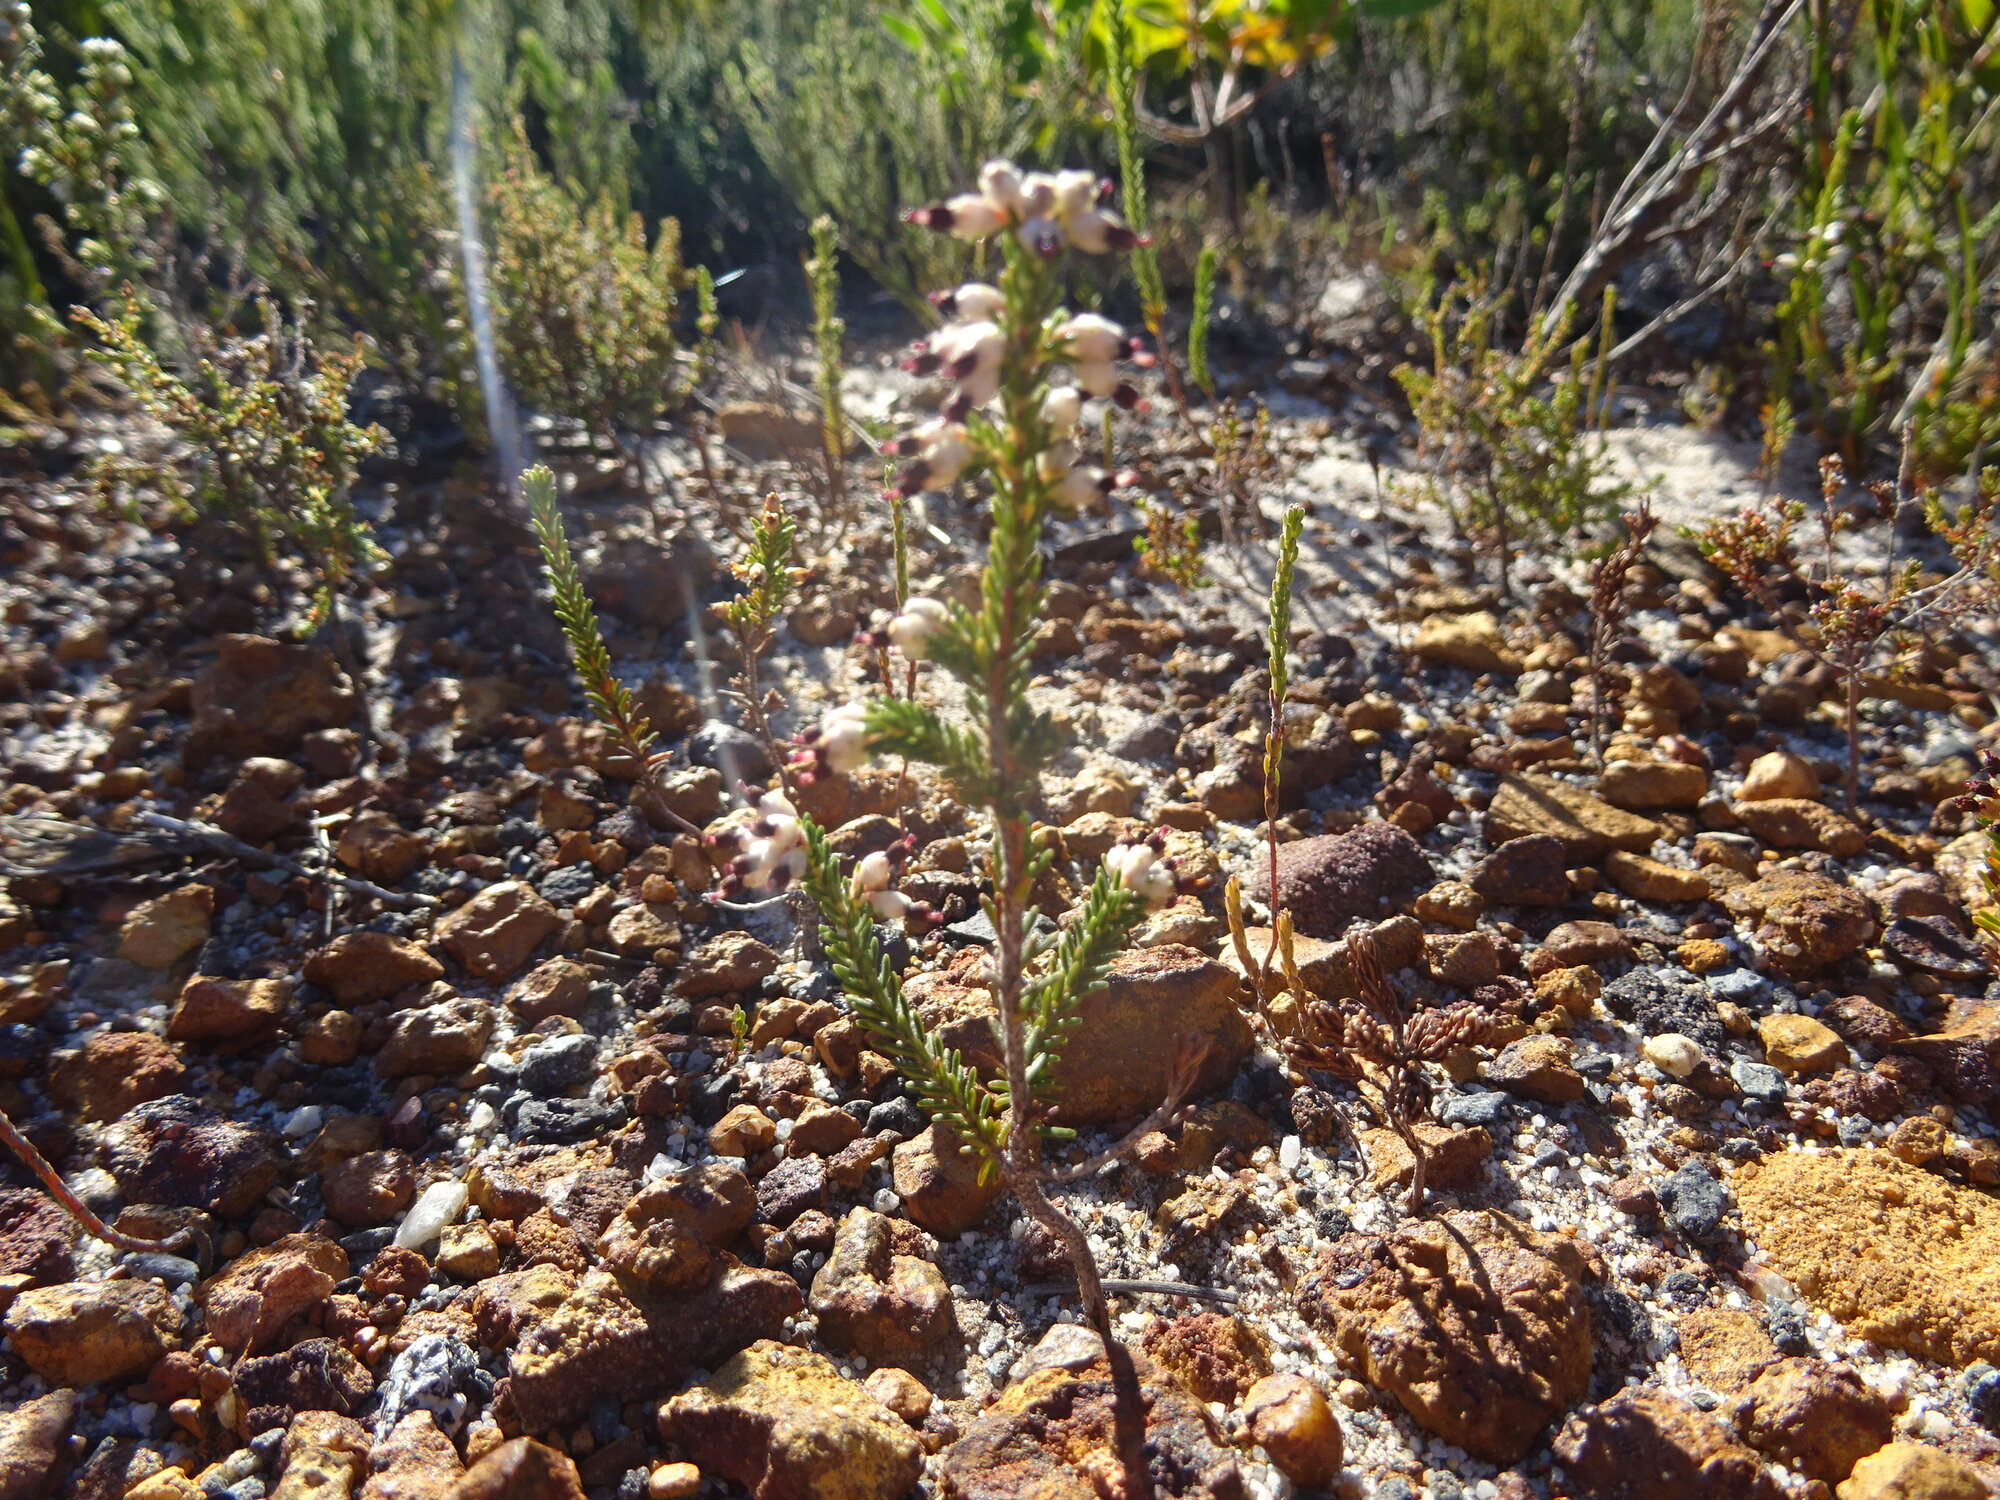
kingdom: Plantae
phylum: Tracheophyta
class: Magnoliopsida
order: Ericales
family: Ericaceae
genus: Erica
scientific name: Erica lasciva
